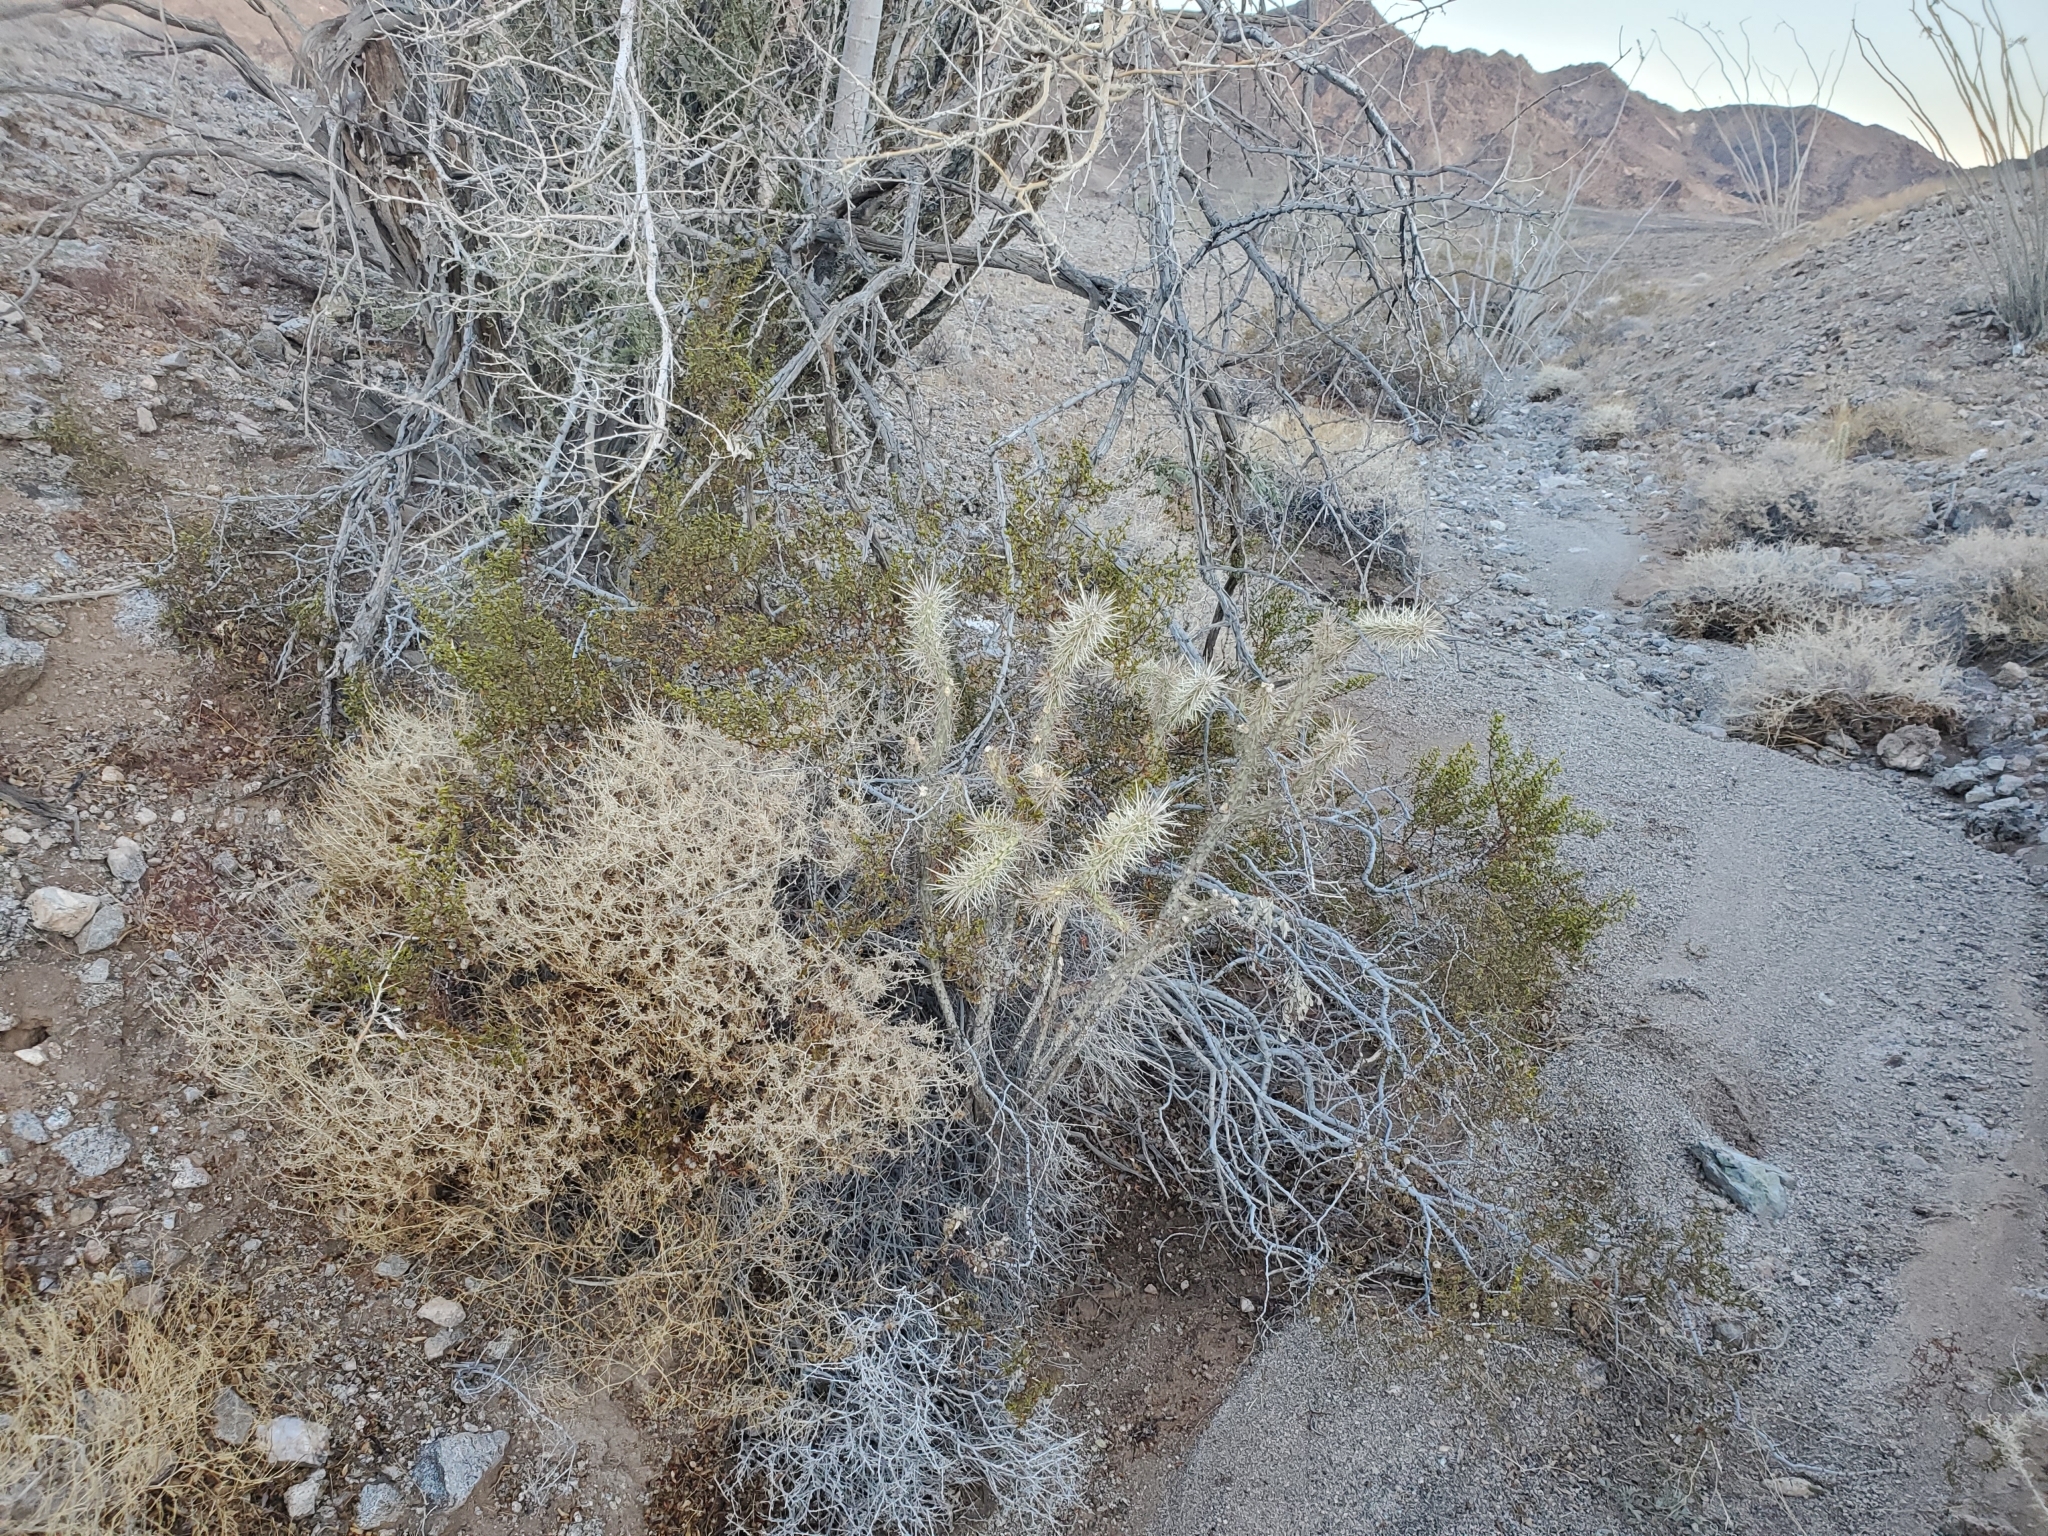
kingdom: Plantae
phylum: Tracheophyta
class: Magnoliopsida
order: Caryophyllales
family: Cactaceae
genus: Cylindropuntia
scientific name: Cylindropuntia acanthocarpa
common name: Buckhorn cholla
